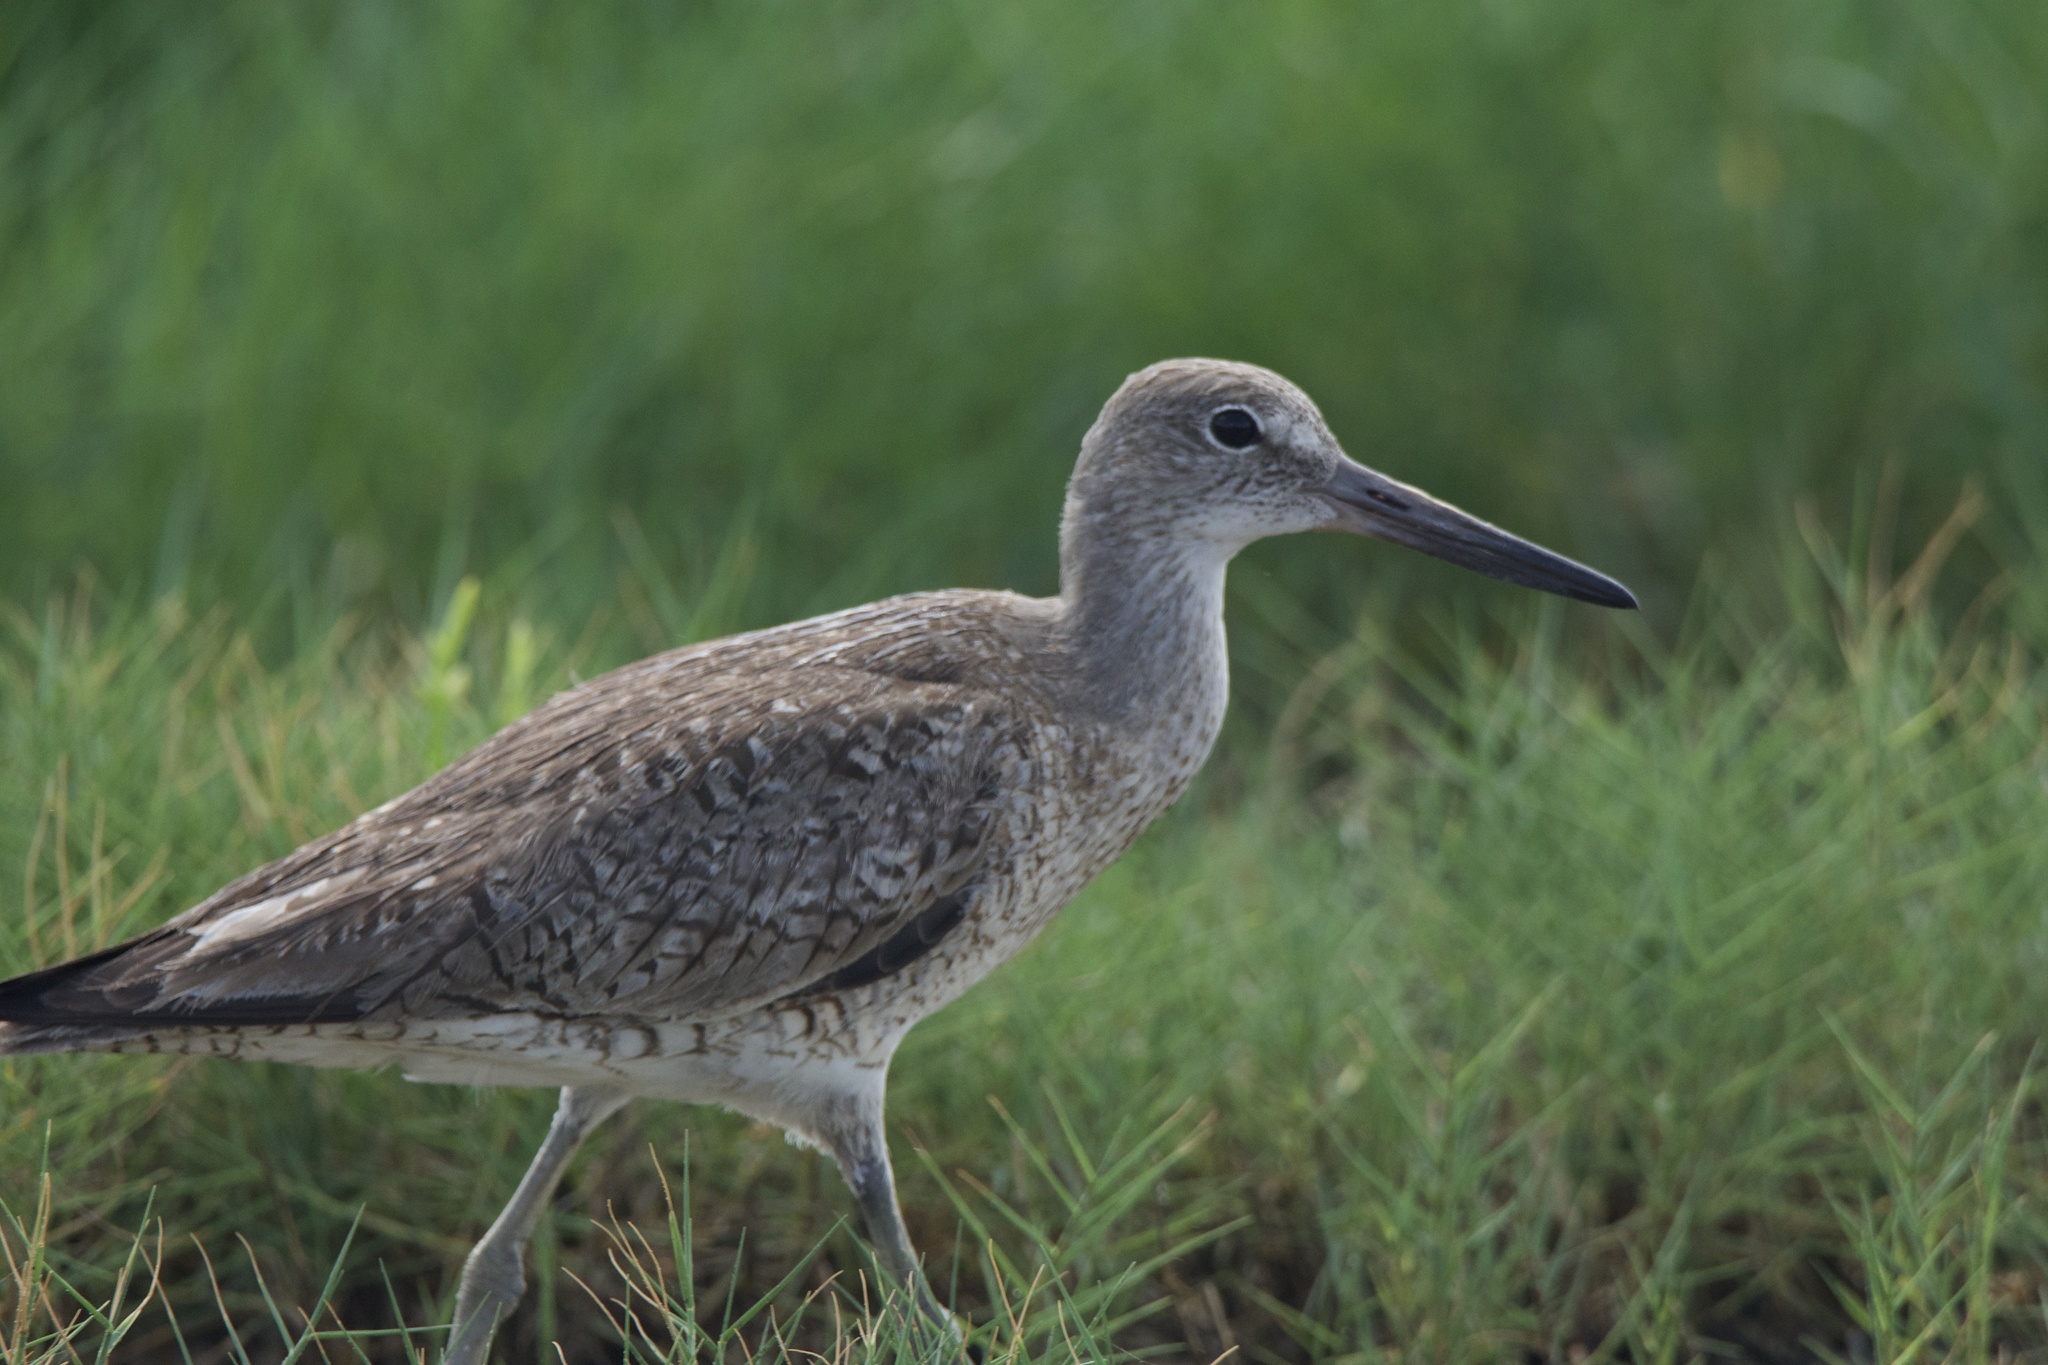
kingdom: Animalia
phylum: Chordata
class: Aves
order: Charadriiformes
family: Scolopacidae
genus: Tringa
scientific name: Tringa semipalmata
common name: Willet
